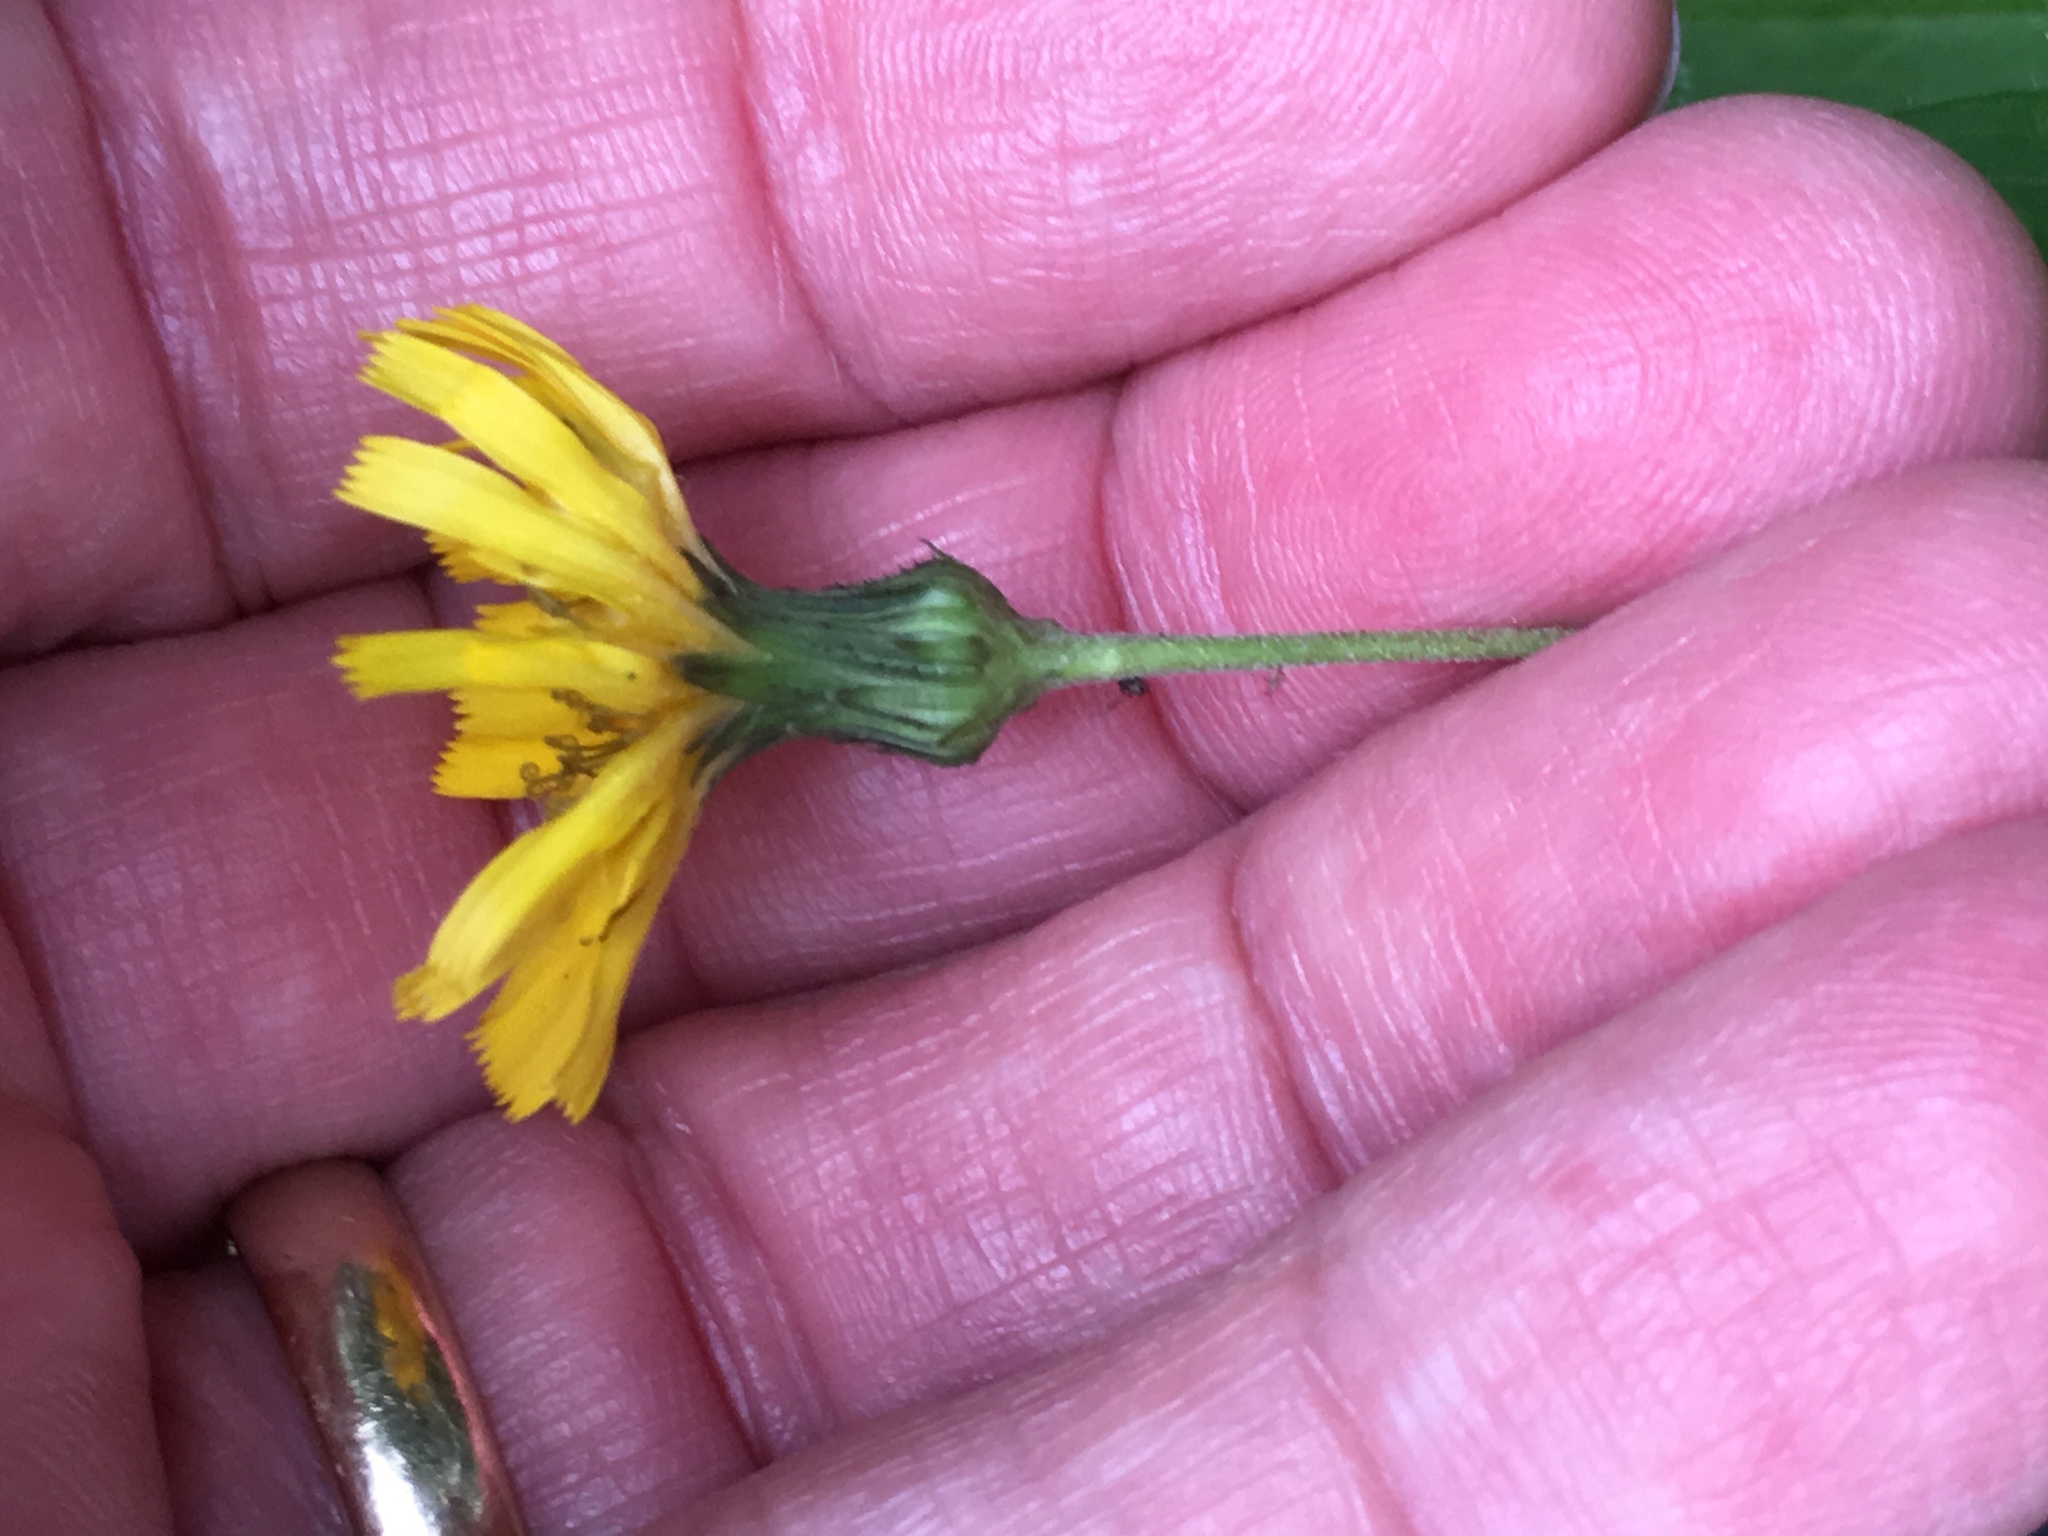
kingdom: Plantae
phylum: Tracheophyta
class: Magnoliopsida
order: Asterales
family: Asteraceae
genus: Hieracium
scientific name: Hieracium umbellatum
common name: Northern hawkweed
